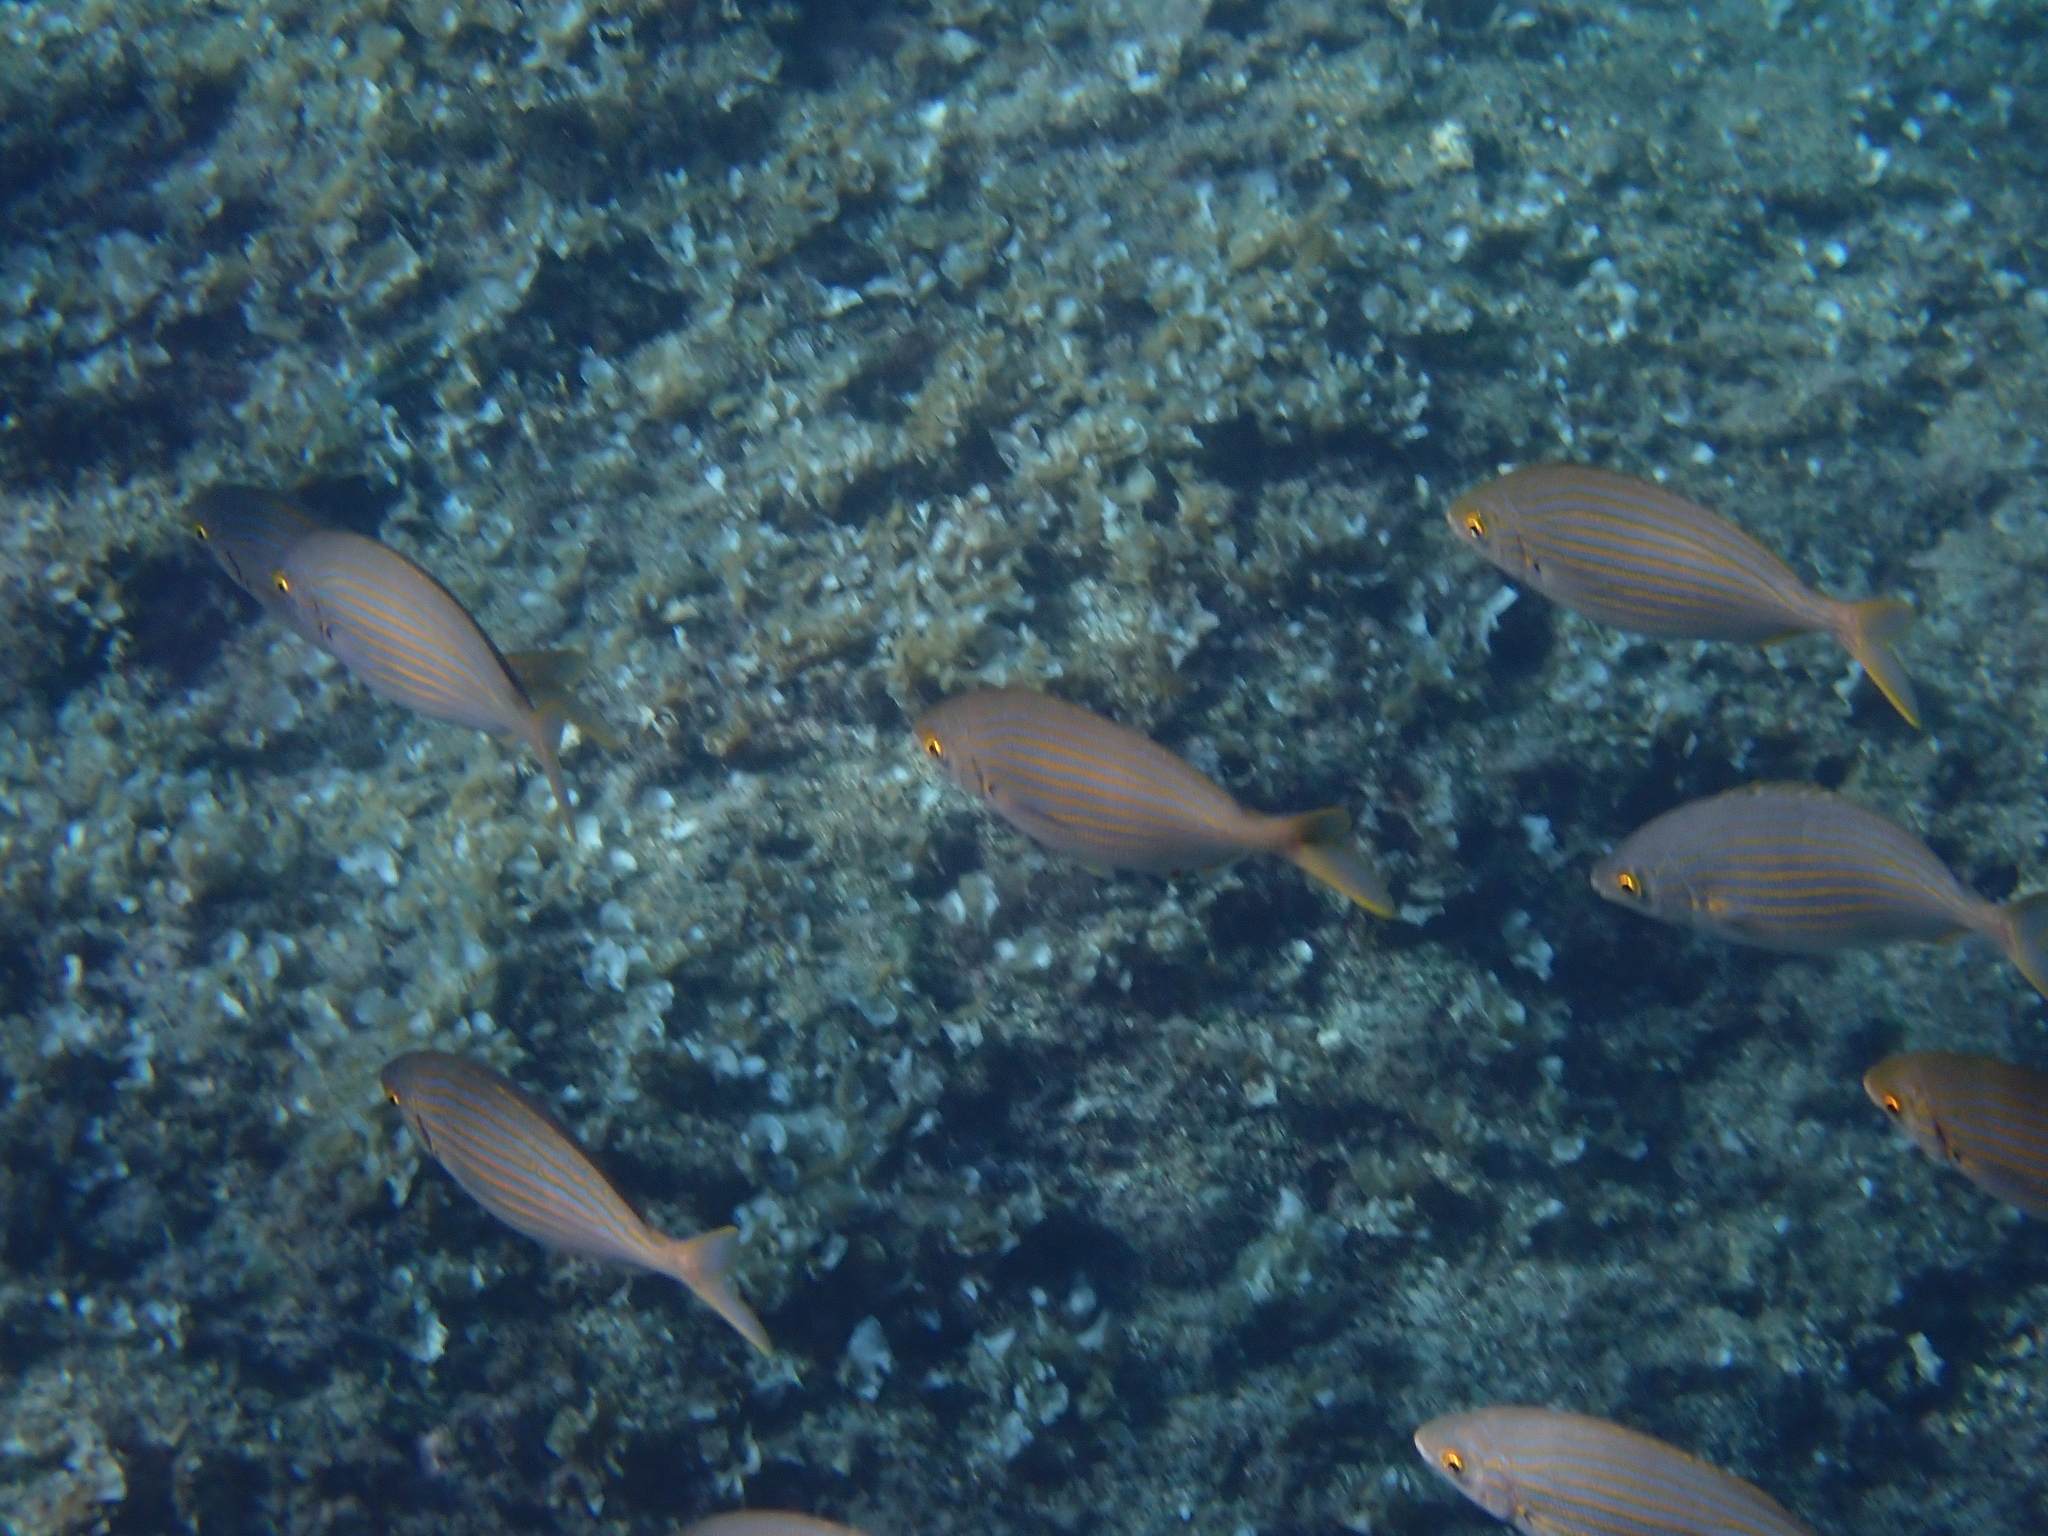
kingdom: Animalia
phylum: Chordata
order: Perciformes
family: Sparidae
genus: Sarpa
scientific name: Sarpa salpa
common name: Salema
